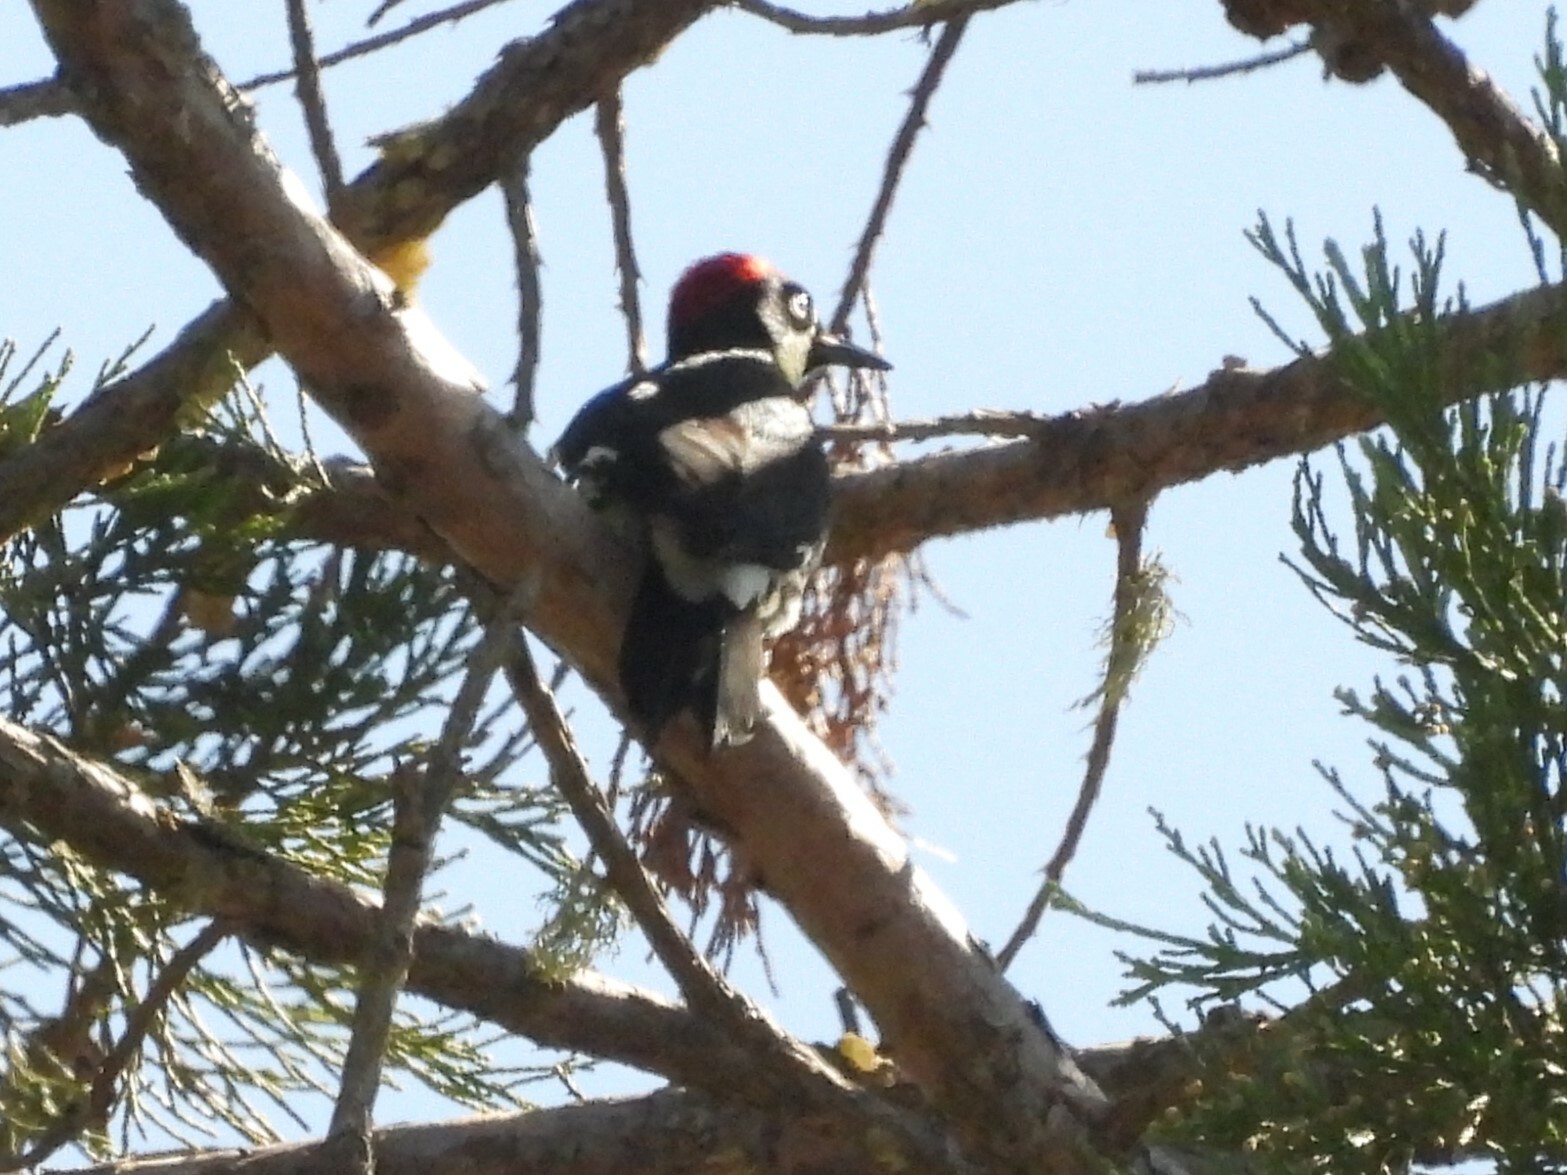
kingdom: Animalia
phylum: Chordata
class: Aves
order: Piciformes
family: Picidae
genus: Melanerpes
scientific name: Melanerpes formicivorus
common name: Acorn woodpecker
